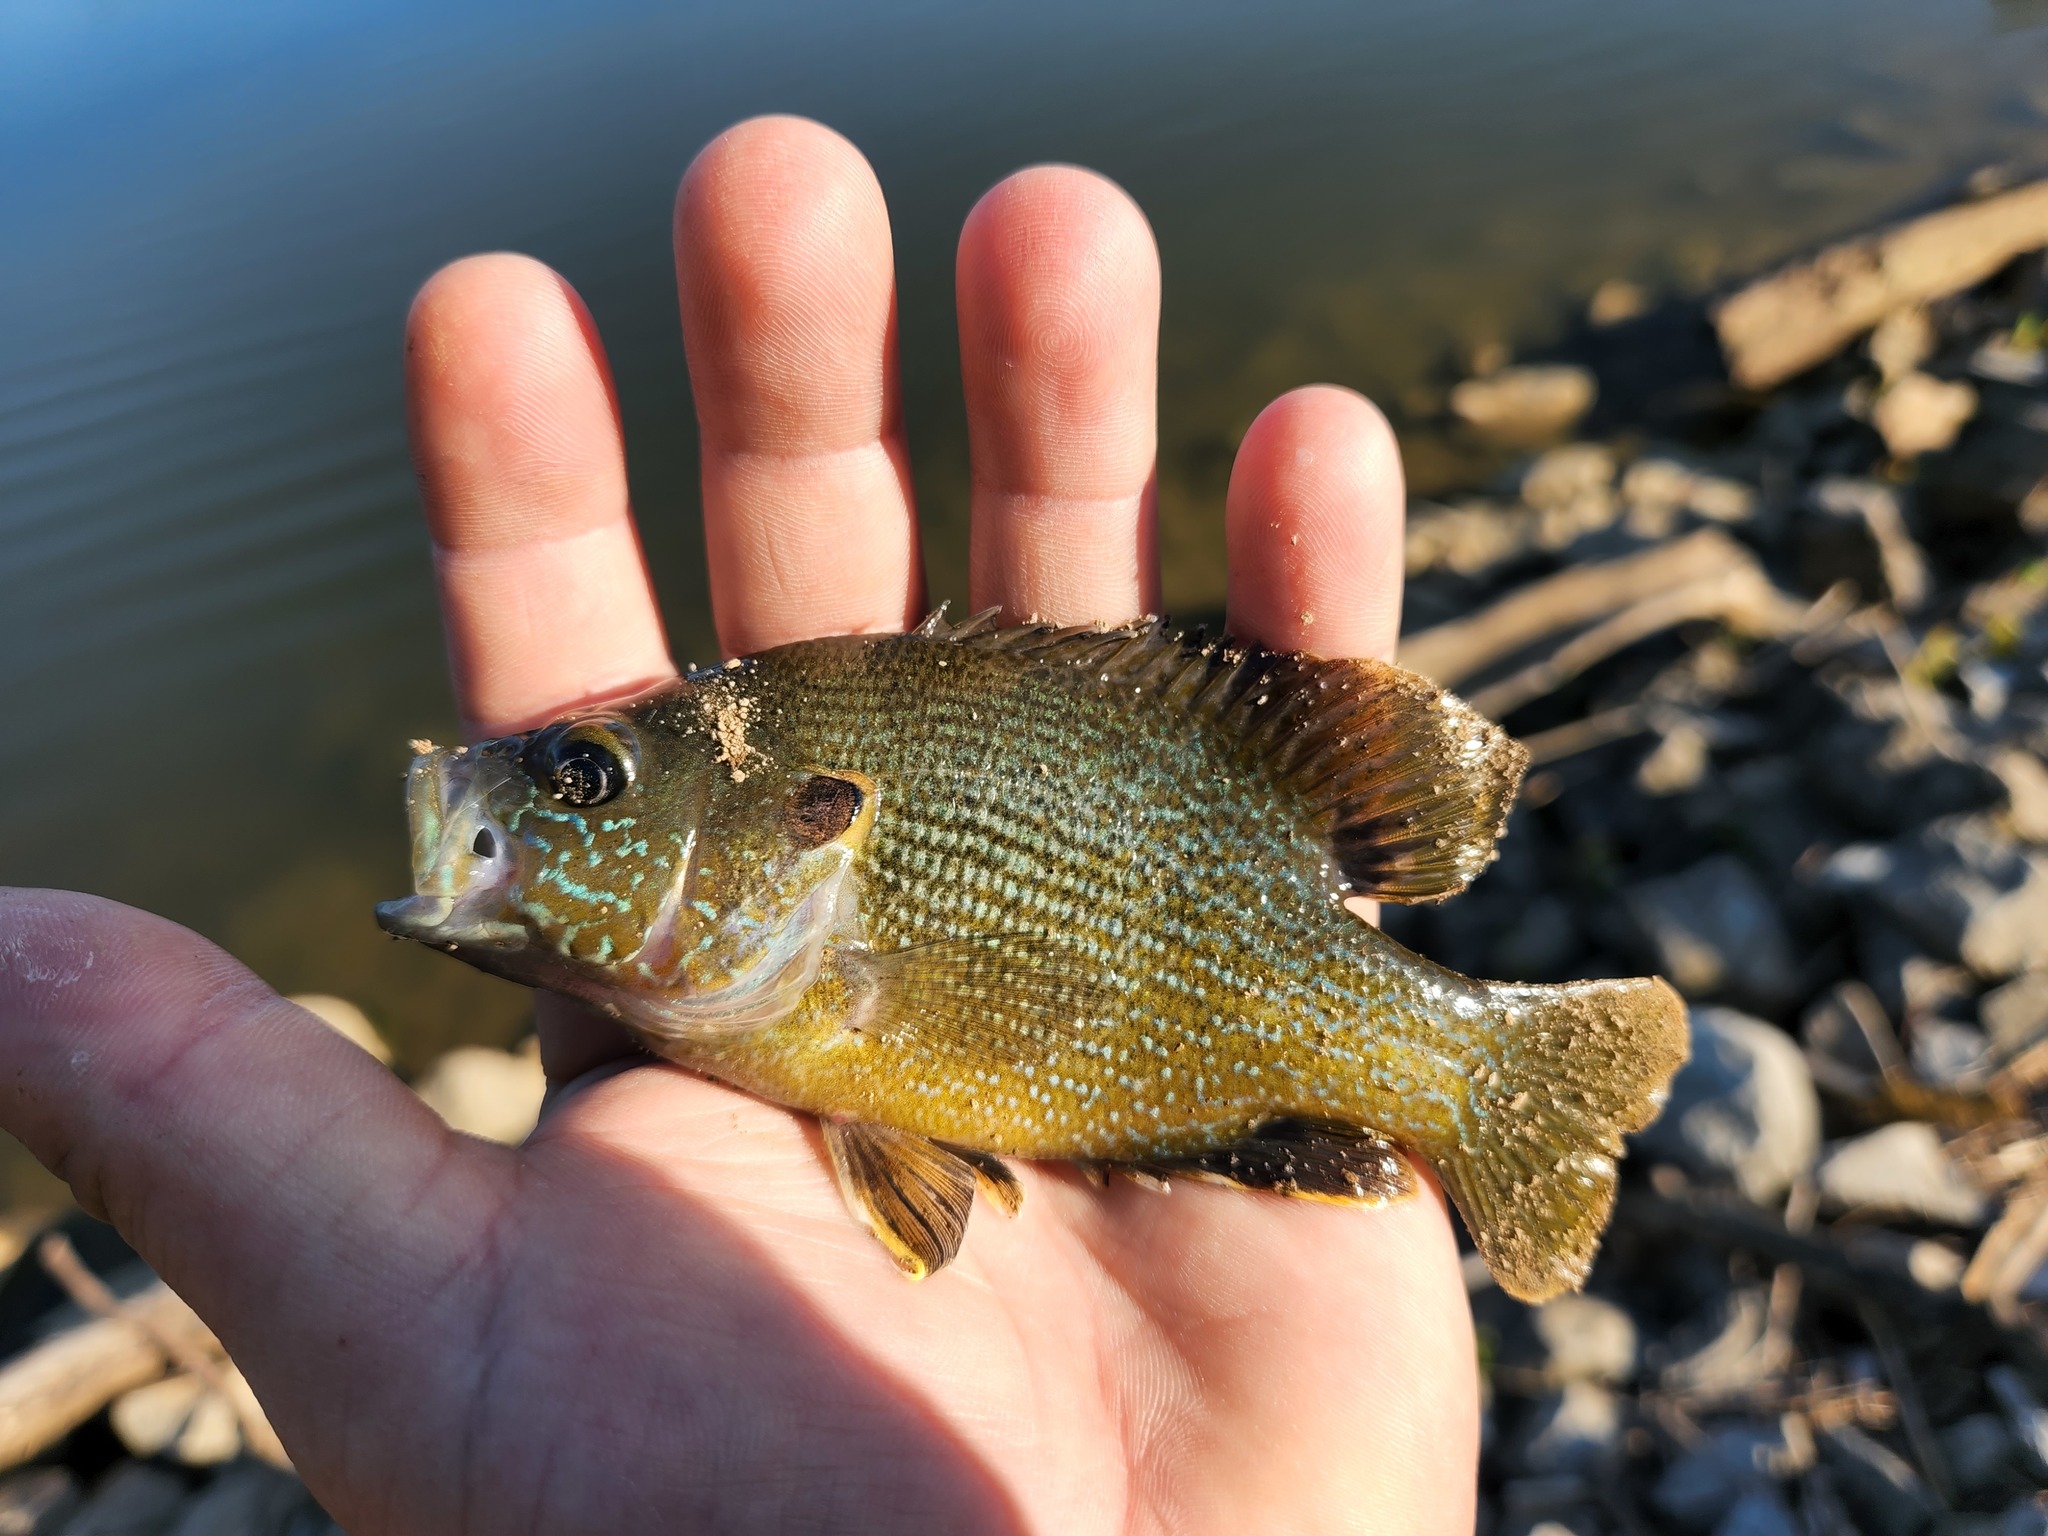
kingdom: Animalia
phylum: Chordata
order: Perciformes
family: Centrarchidae
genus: Lepomis
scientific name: Lepomis cyanellus
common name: Green sunfish
